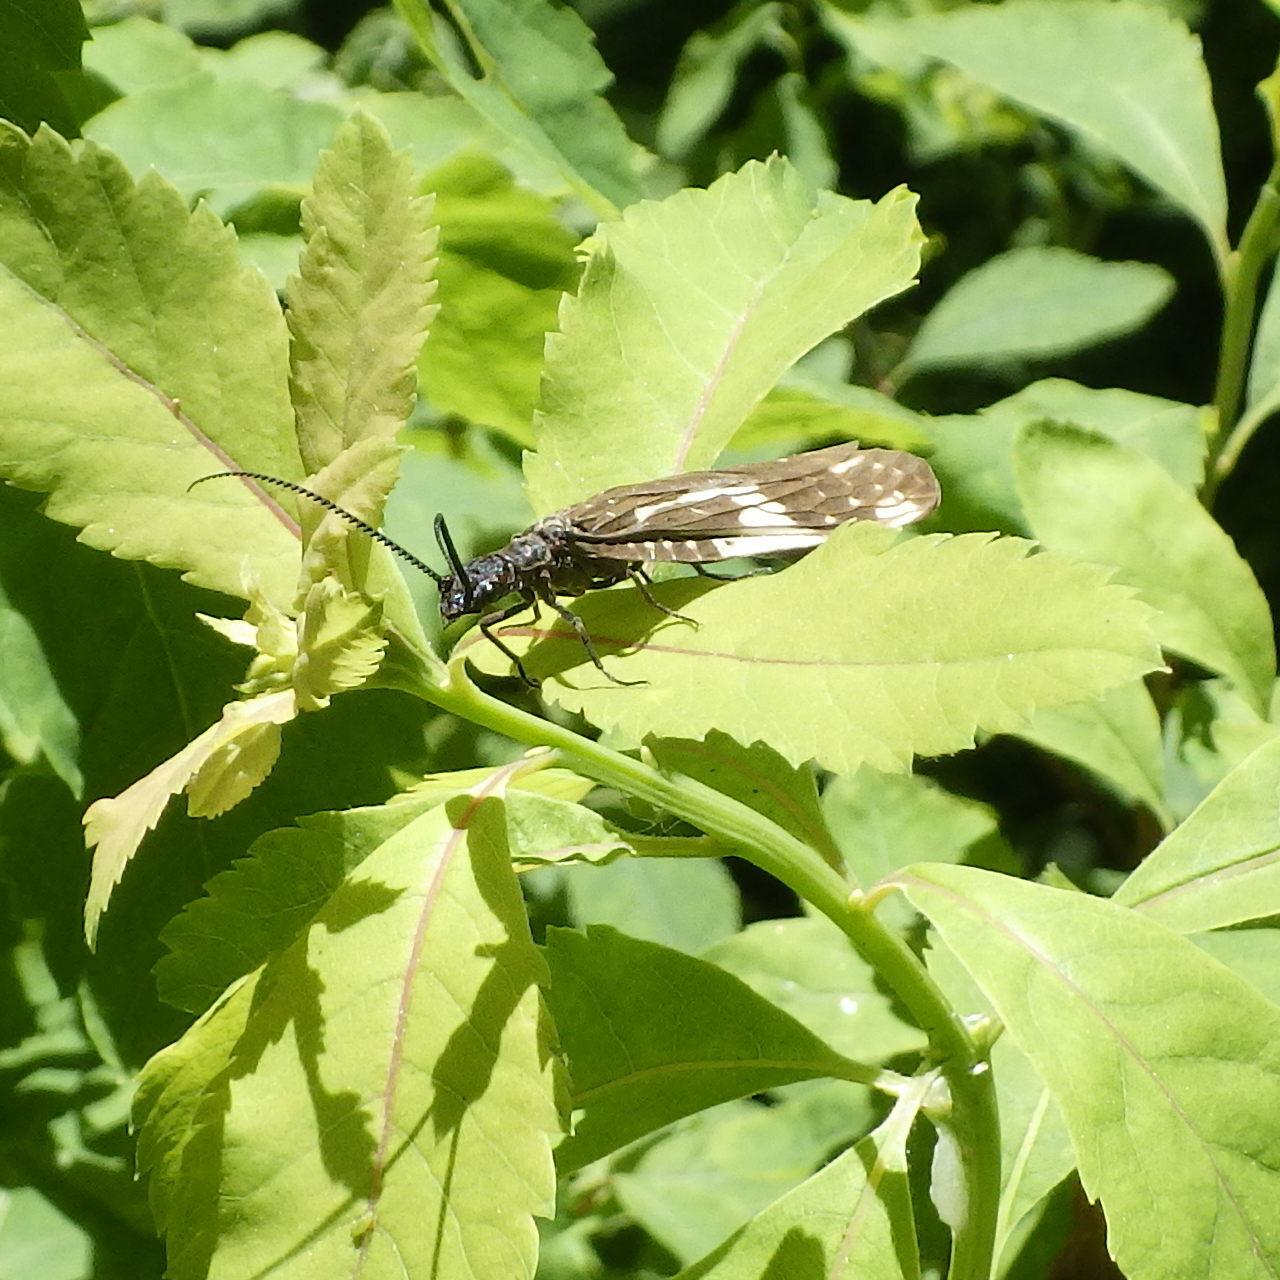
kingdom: Animalia
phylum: Arthropoda
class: Insecta
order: Megaloptera
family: Corydalidae
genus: Nigronia
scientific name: Nigronia serricornis
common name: Serrate dark fishfly
